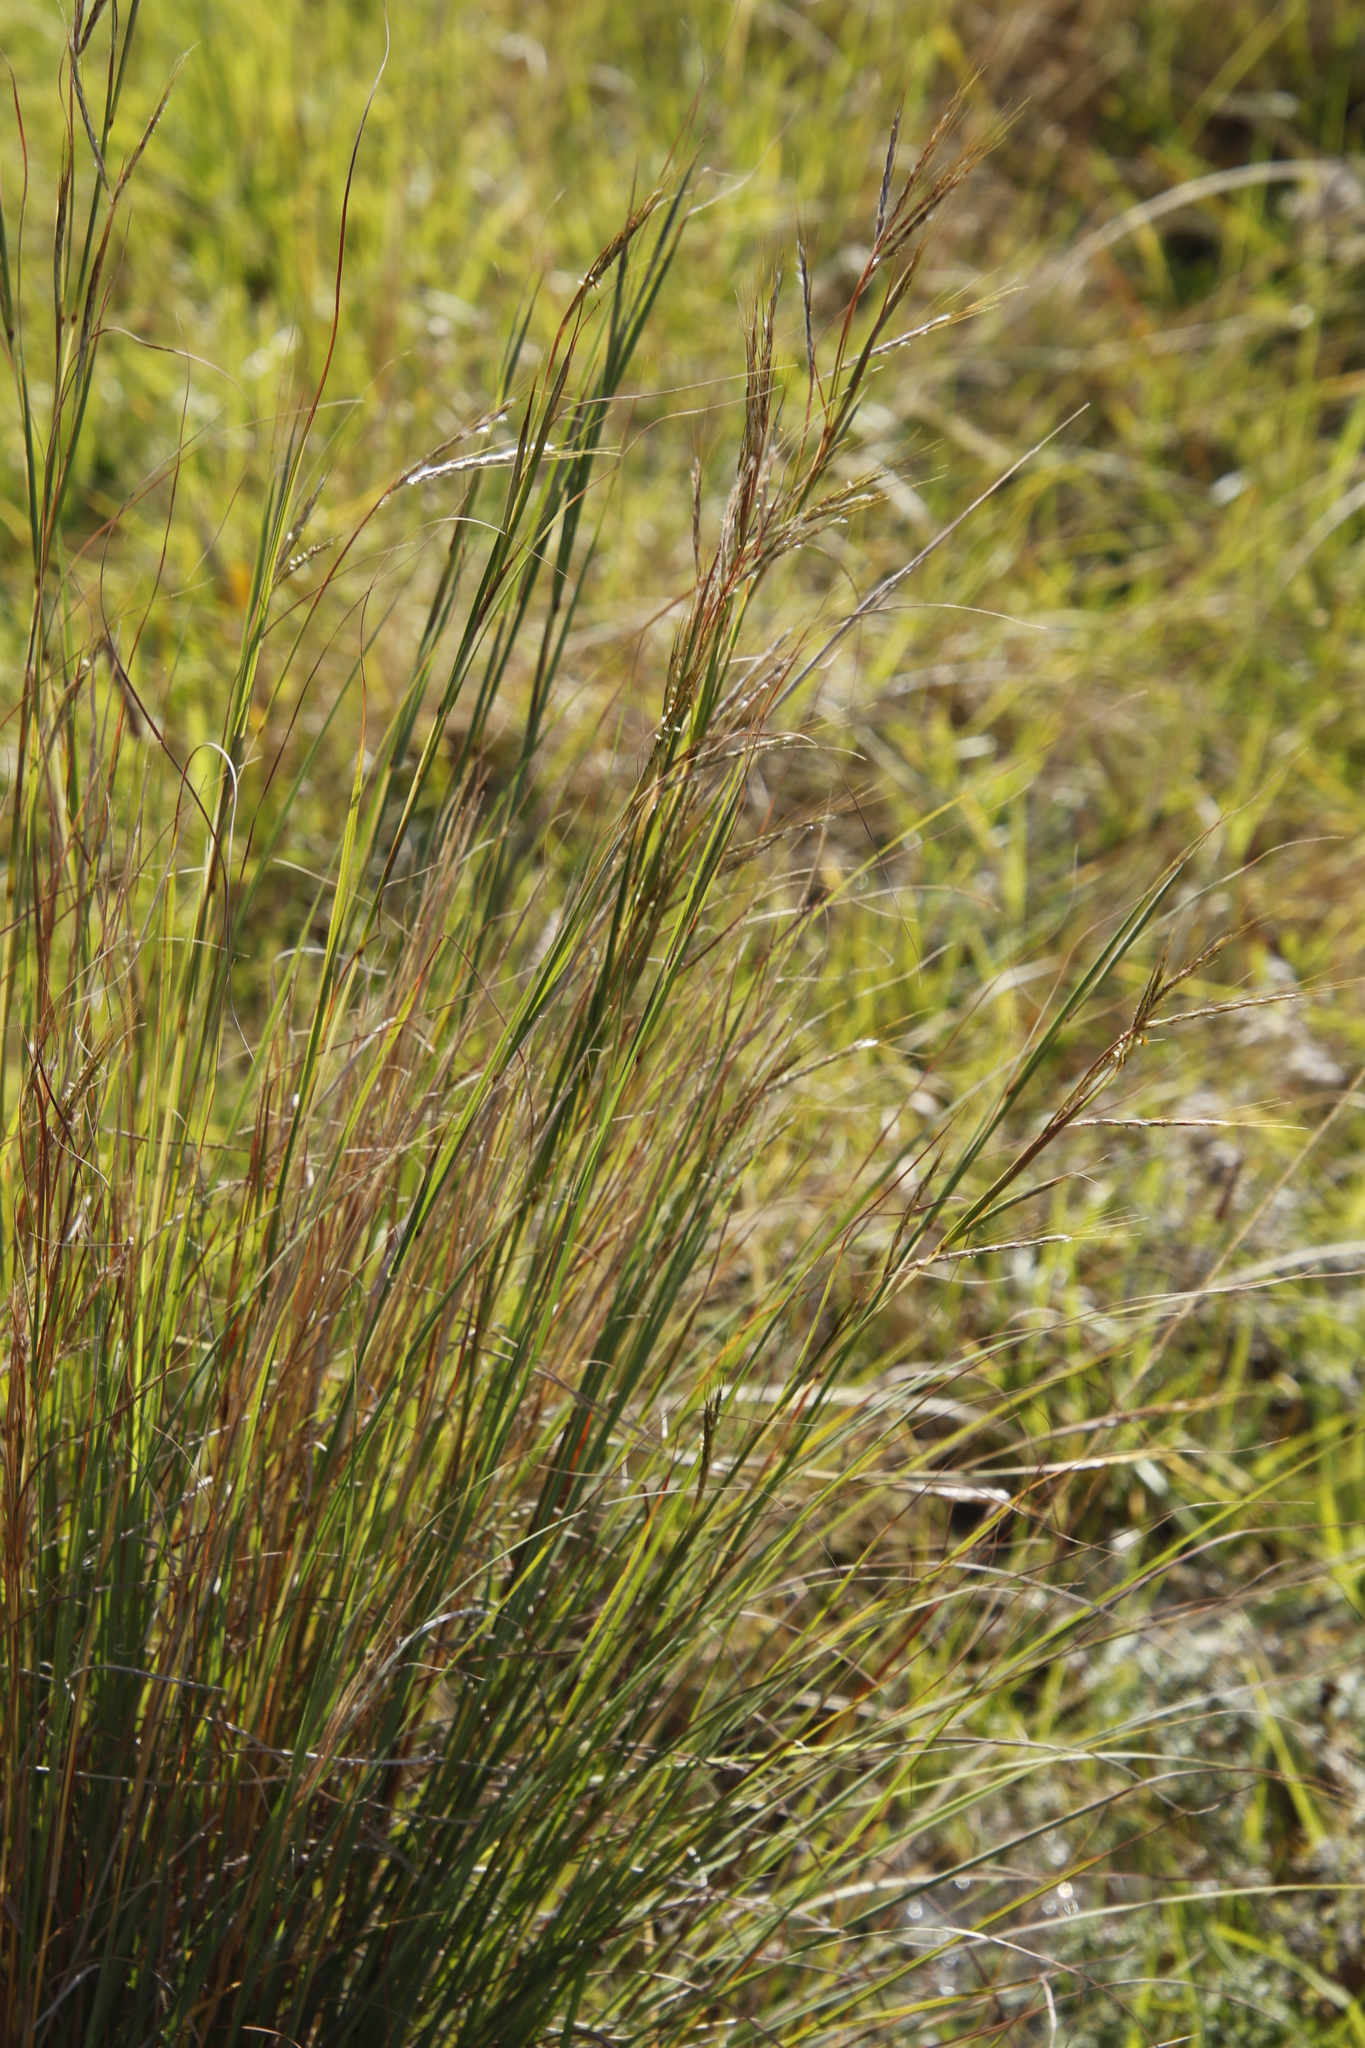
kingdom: Plantae
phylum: Tracheophyta
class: Liliopsida
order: Poales
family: Poaceae
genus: Andropogon
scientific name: Andropogon eucomus
